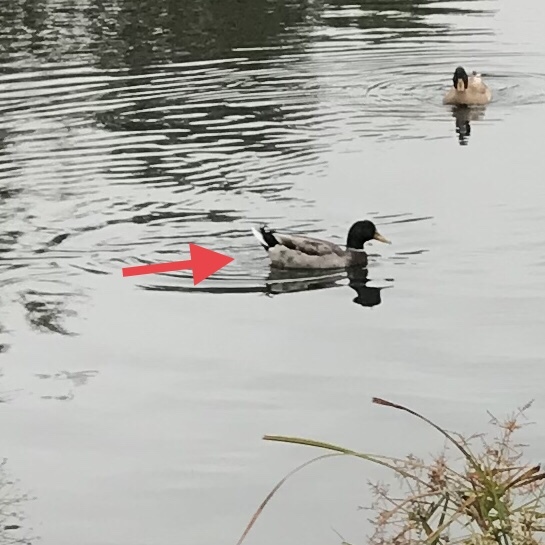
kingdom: Animalia
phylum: Chordata
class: Aves
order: Anseriformes
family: Anatidae
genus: Anas
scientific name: Anas platyrhynchos
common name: Mallard
